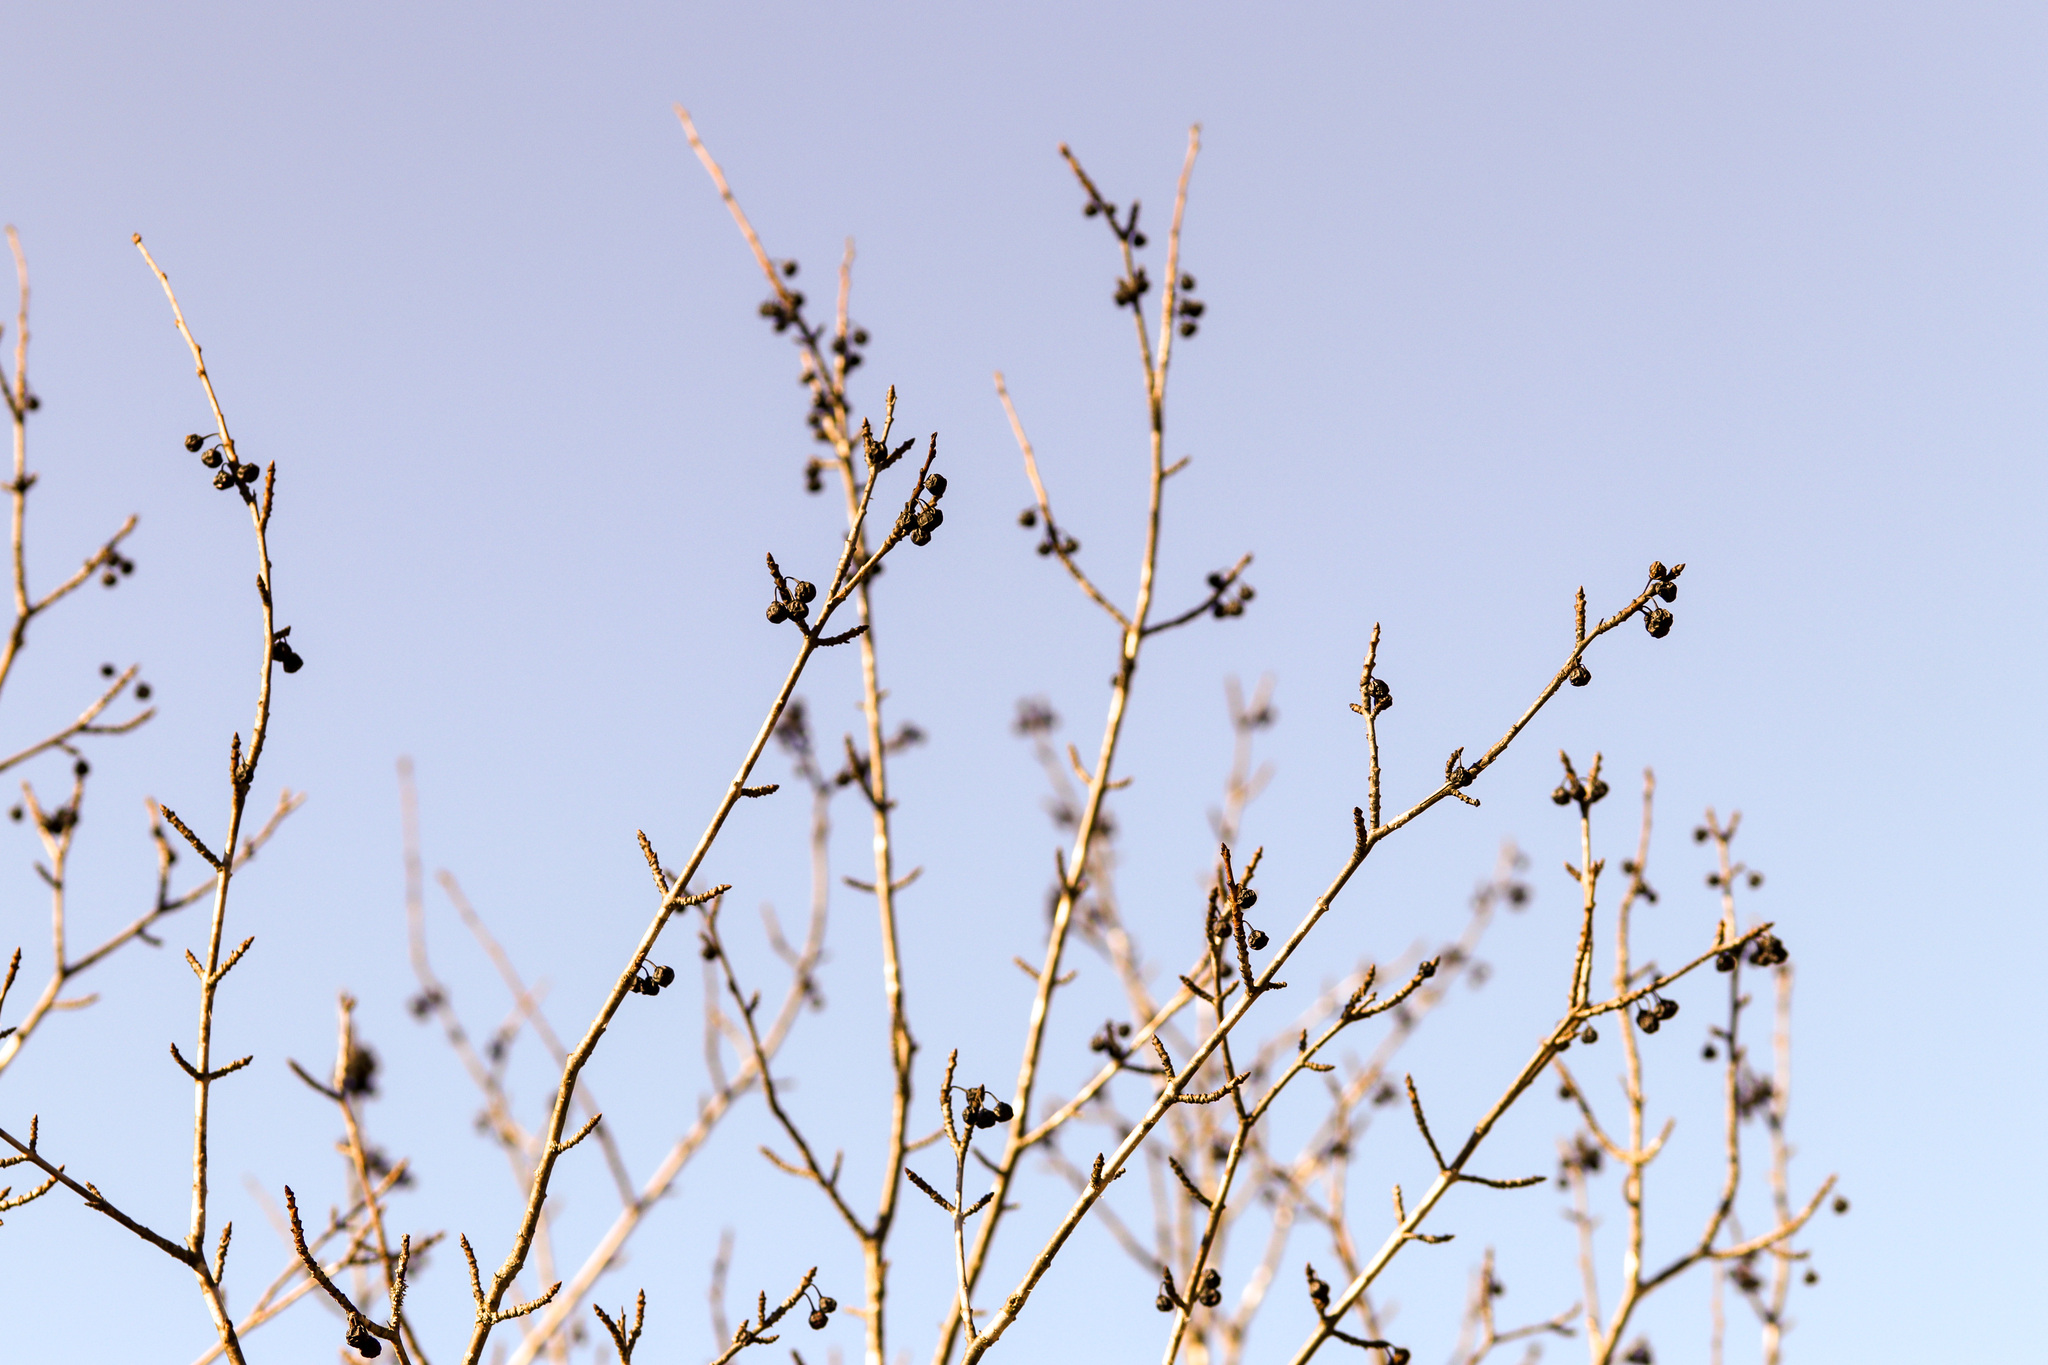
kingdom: Plantae
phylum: Tracheophyta
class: Magnoliopsida
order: Rosales
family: Rhamnaceae
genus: Rhamnus
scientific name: Rhamnus cathartica
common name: Common buckthorn
